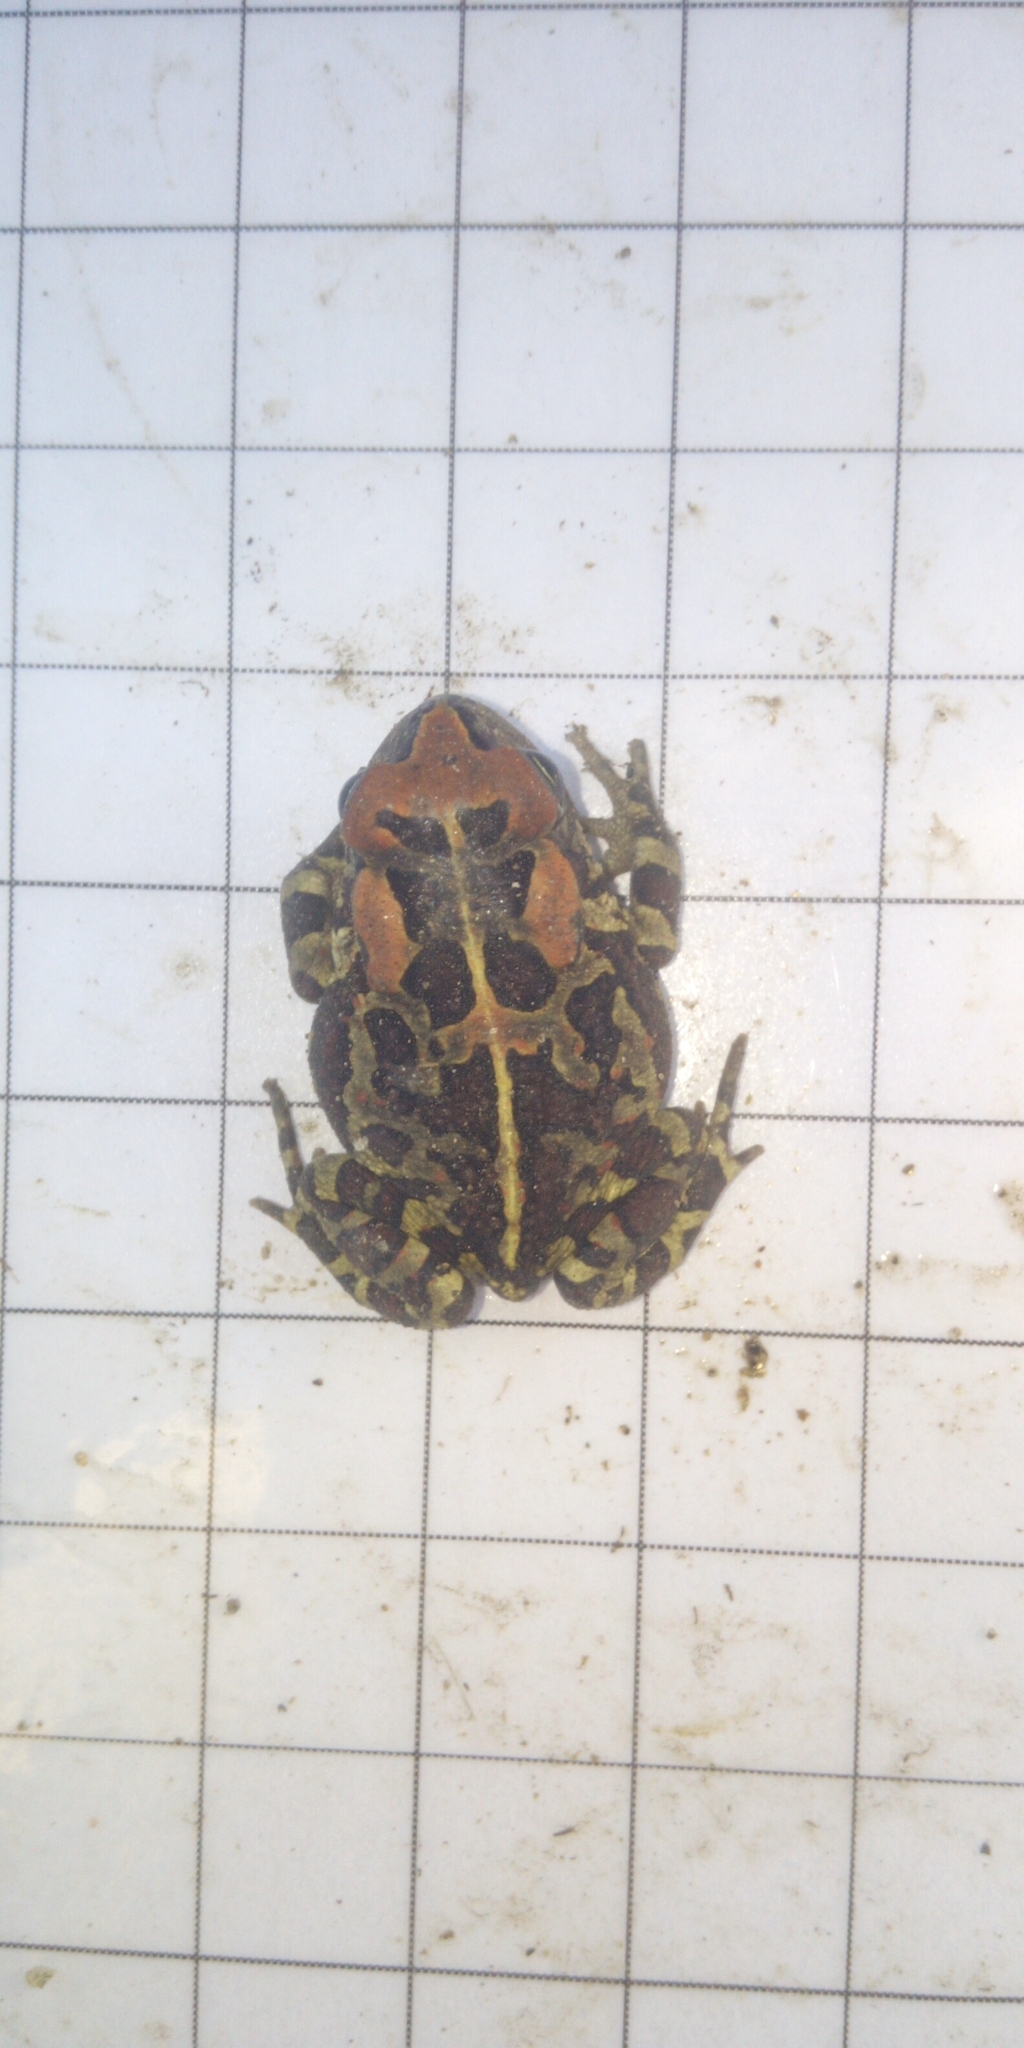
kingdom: Animalia
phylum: Chordata
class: Amphibia
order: Anura
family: Bufonidae
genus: Sclerophrys
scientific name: Sclerophrys pantherina
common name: Panther toad
